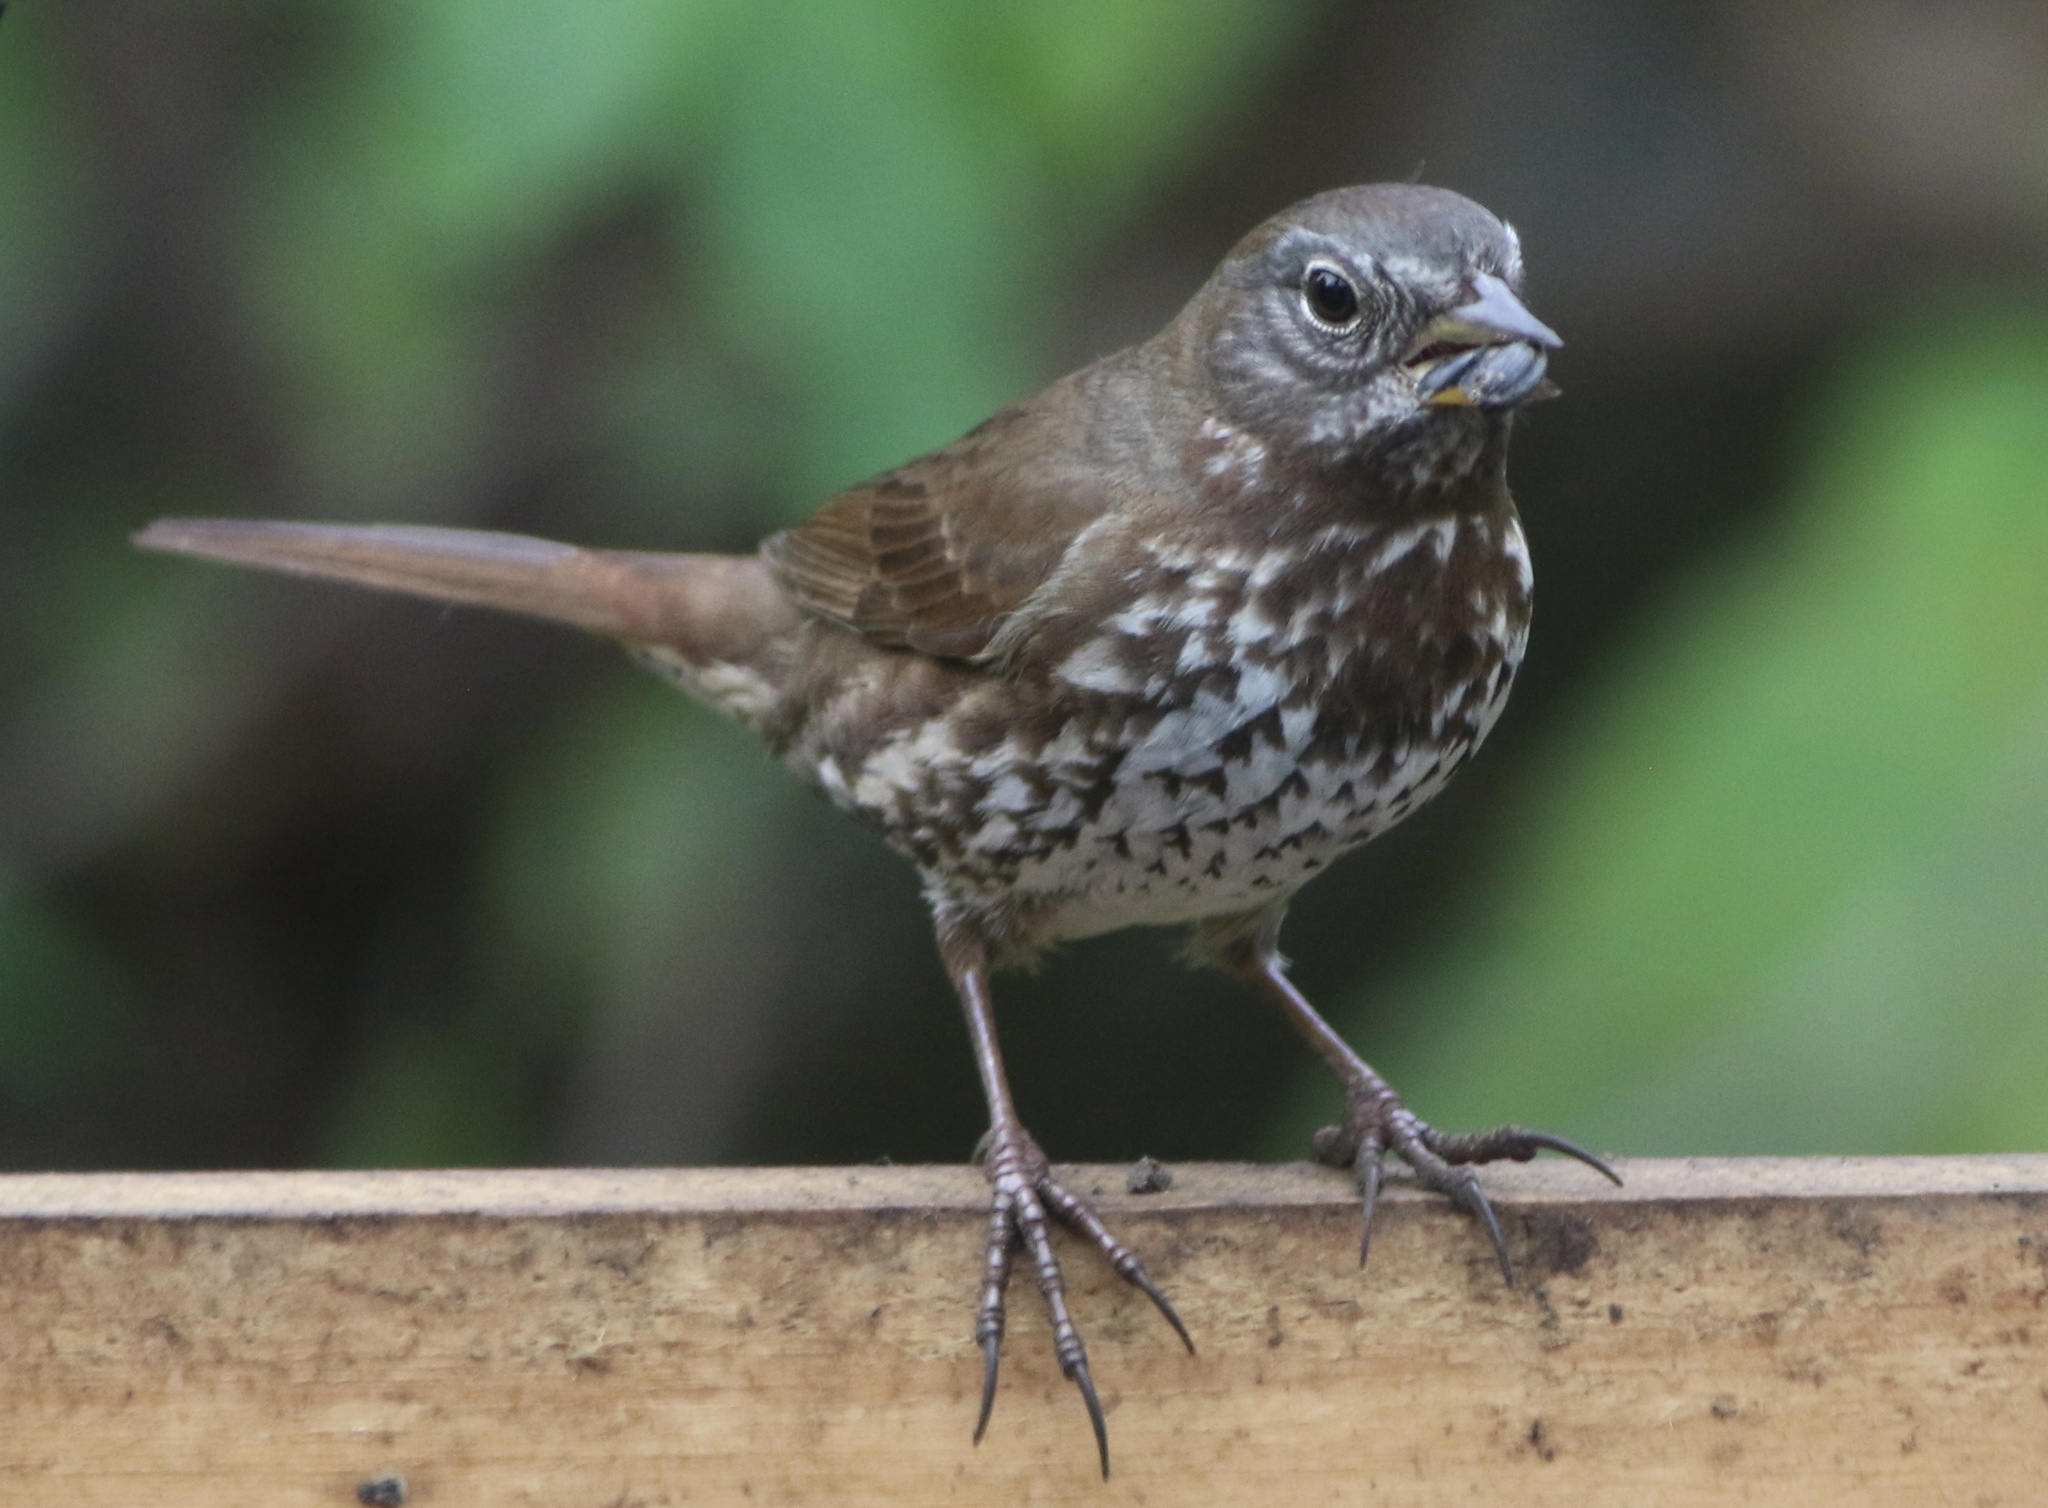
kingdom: Animalia
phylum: Chordata
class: Aves
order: Passeriformes
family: Passerellidae
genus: Passerella
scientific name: Passerella iliaca
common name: Fox sparrow
